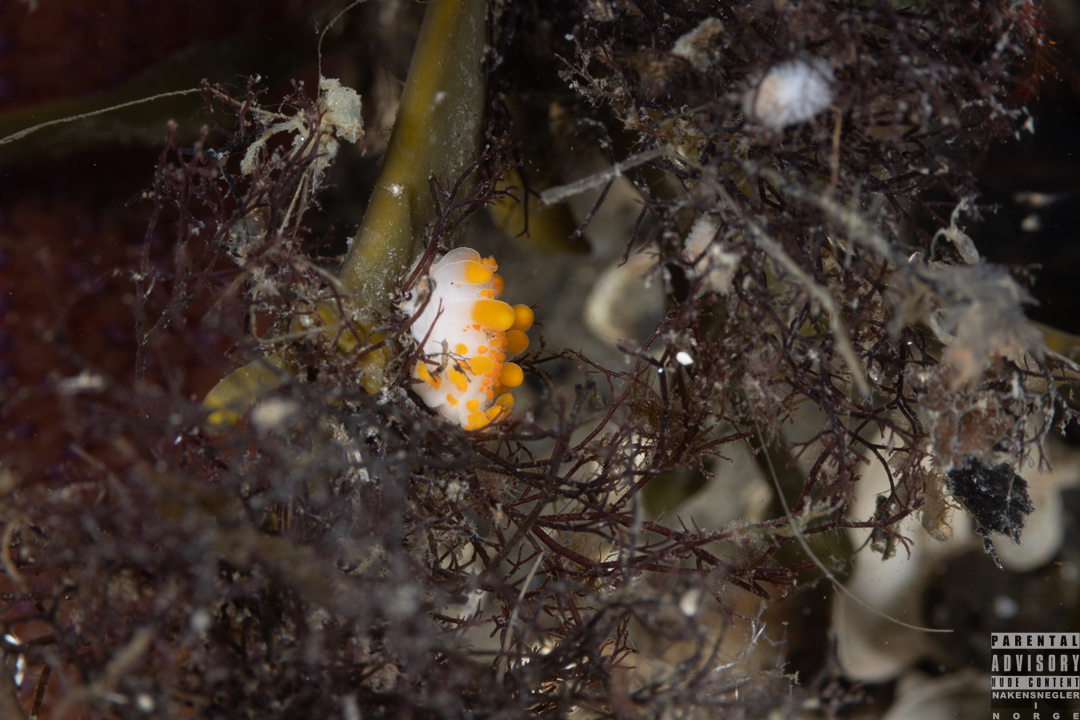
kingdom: Animalia
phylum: Mollusca
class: Gastropoda
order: Nudibranchia
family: Polyceridae
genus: Limacia
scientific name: Limacia clavigera
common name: Orange-clubbed sea slug
